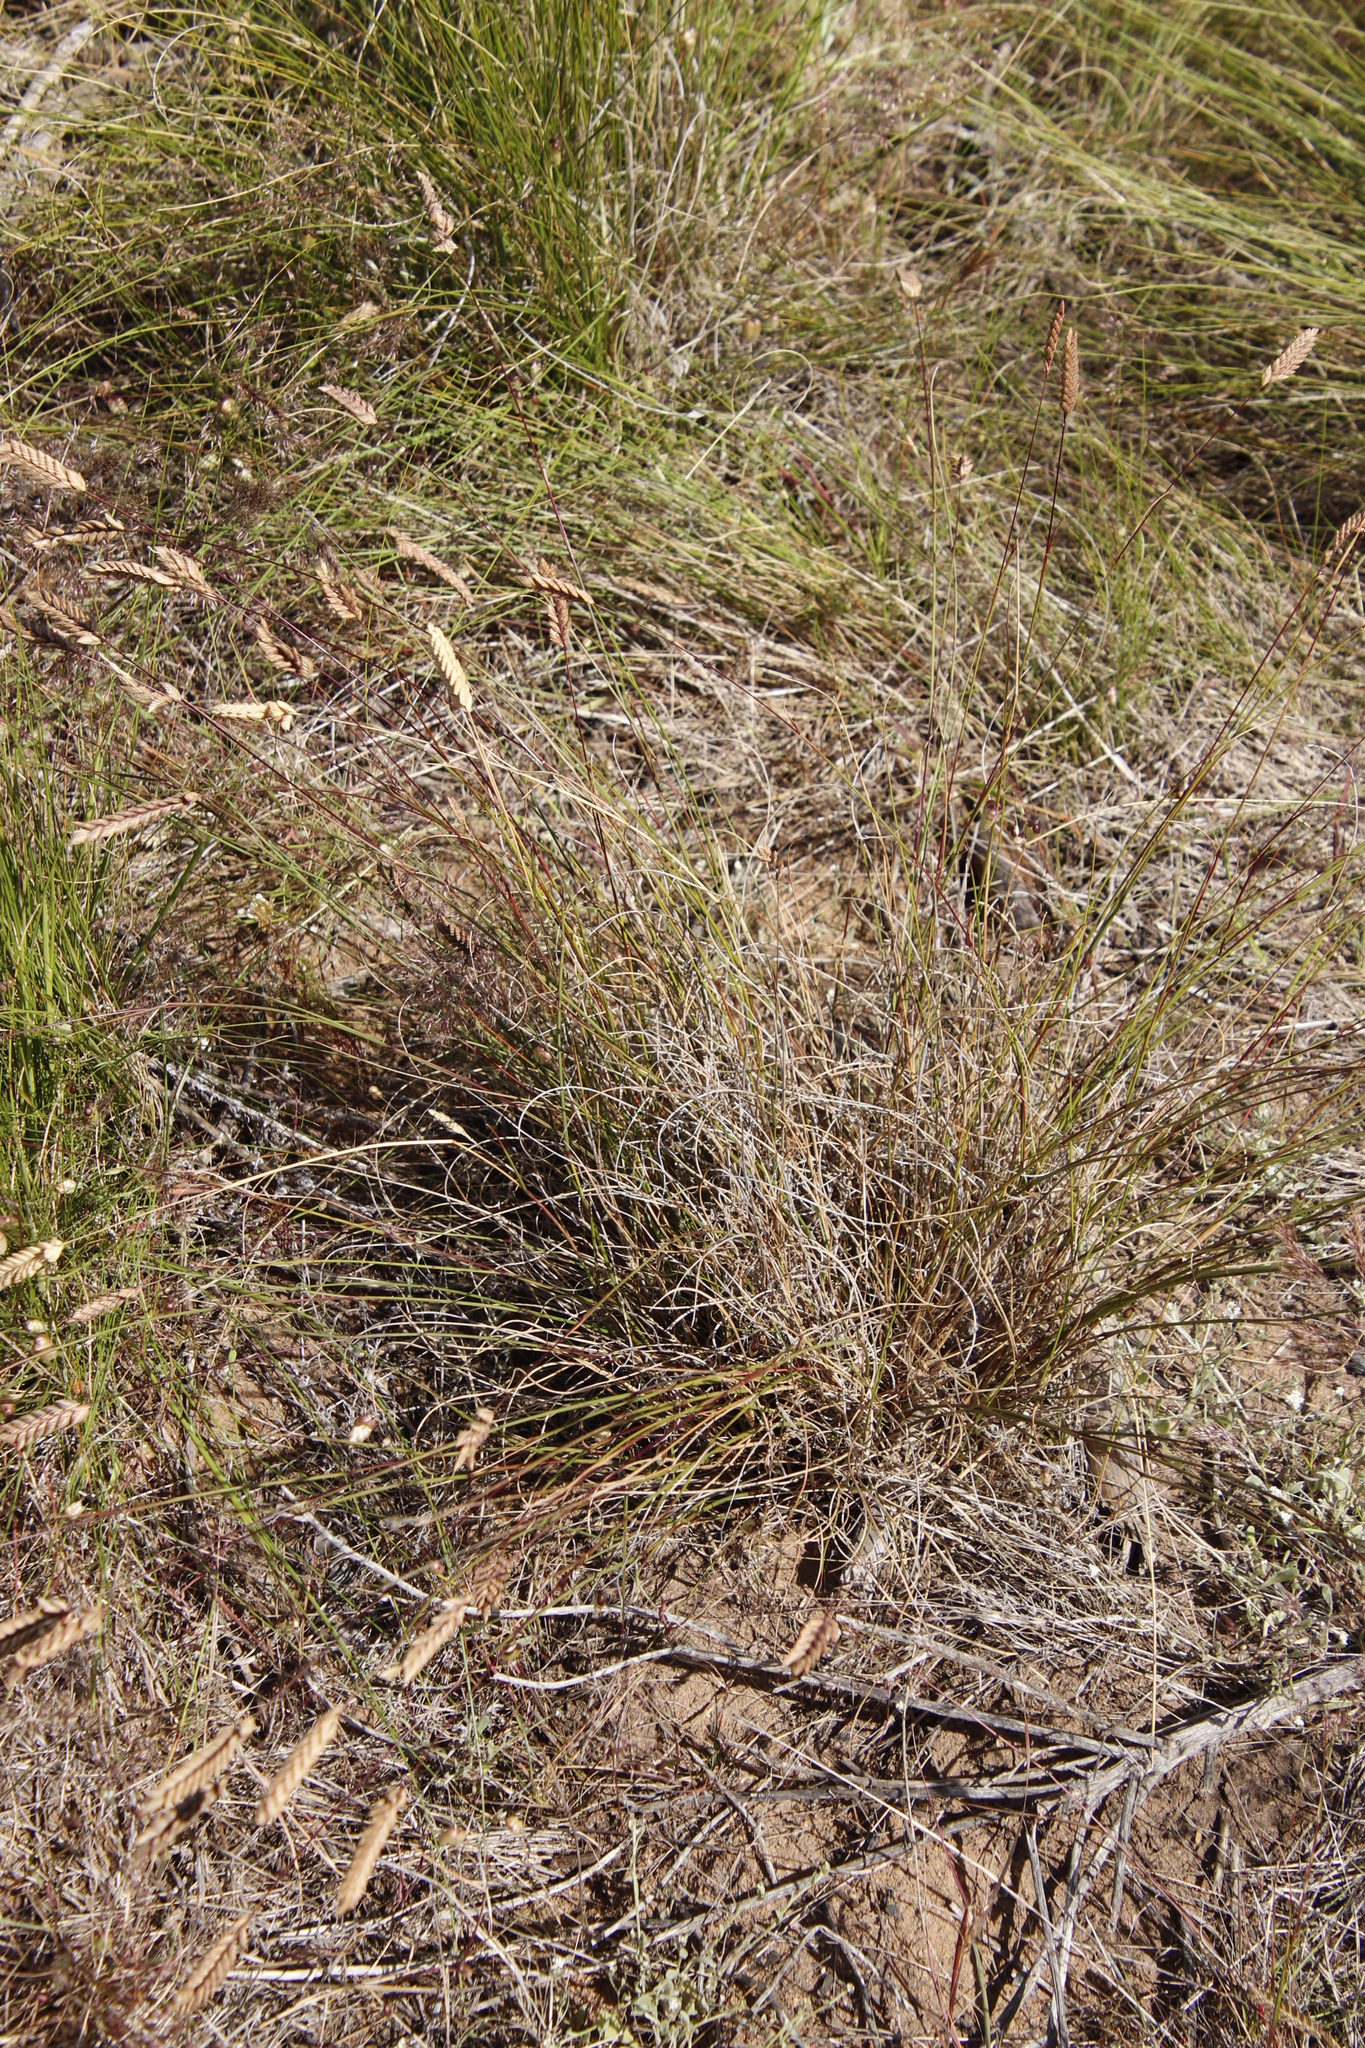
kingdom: Plantae
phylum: Tracheophyta
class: Liliopsida
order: Poales
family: Poaceae
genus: Tribolium
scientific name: Tribolium uniolae
